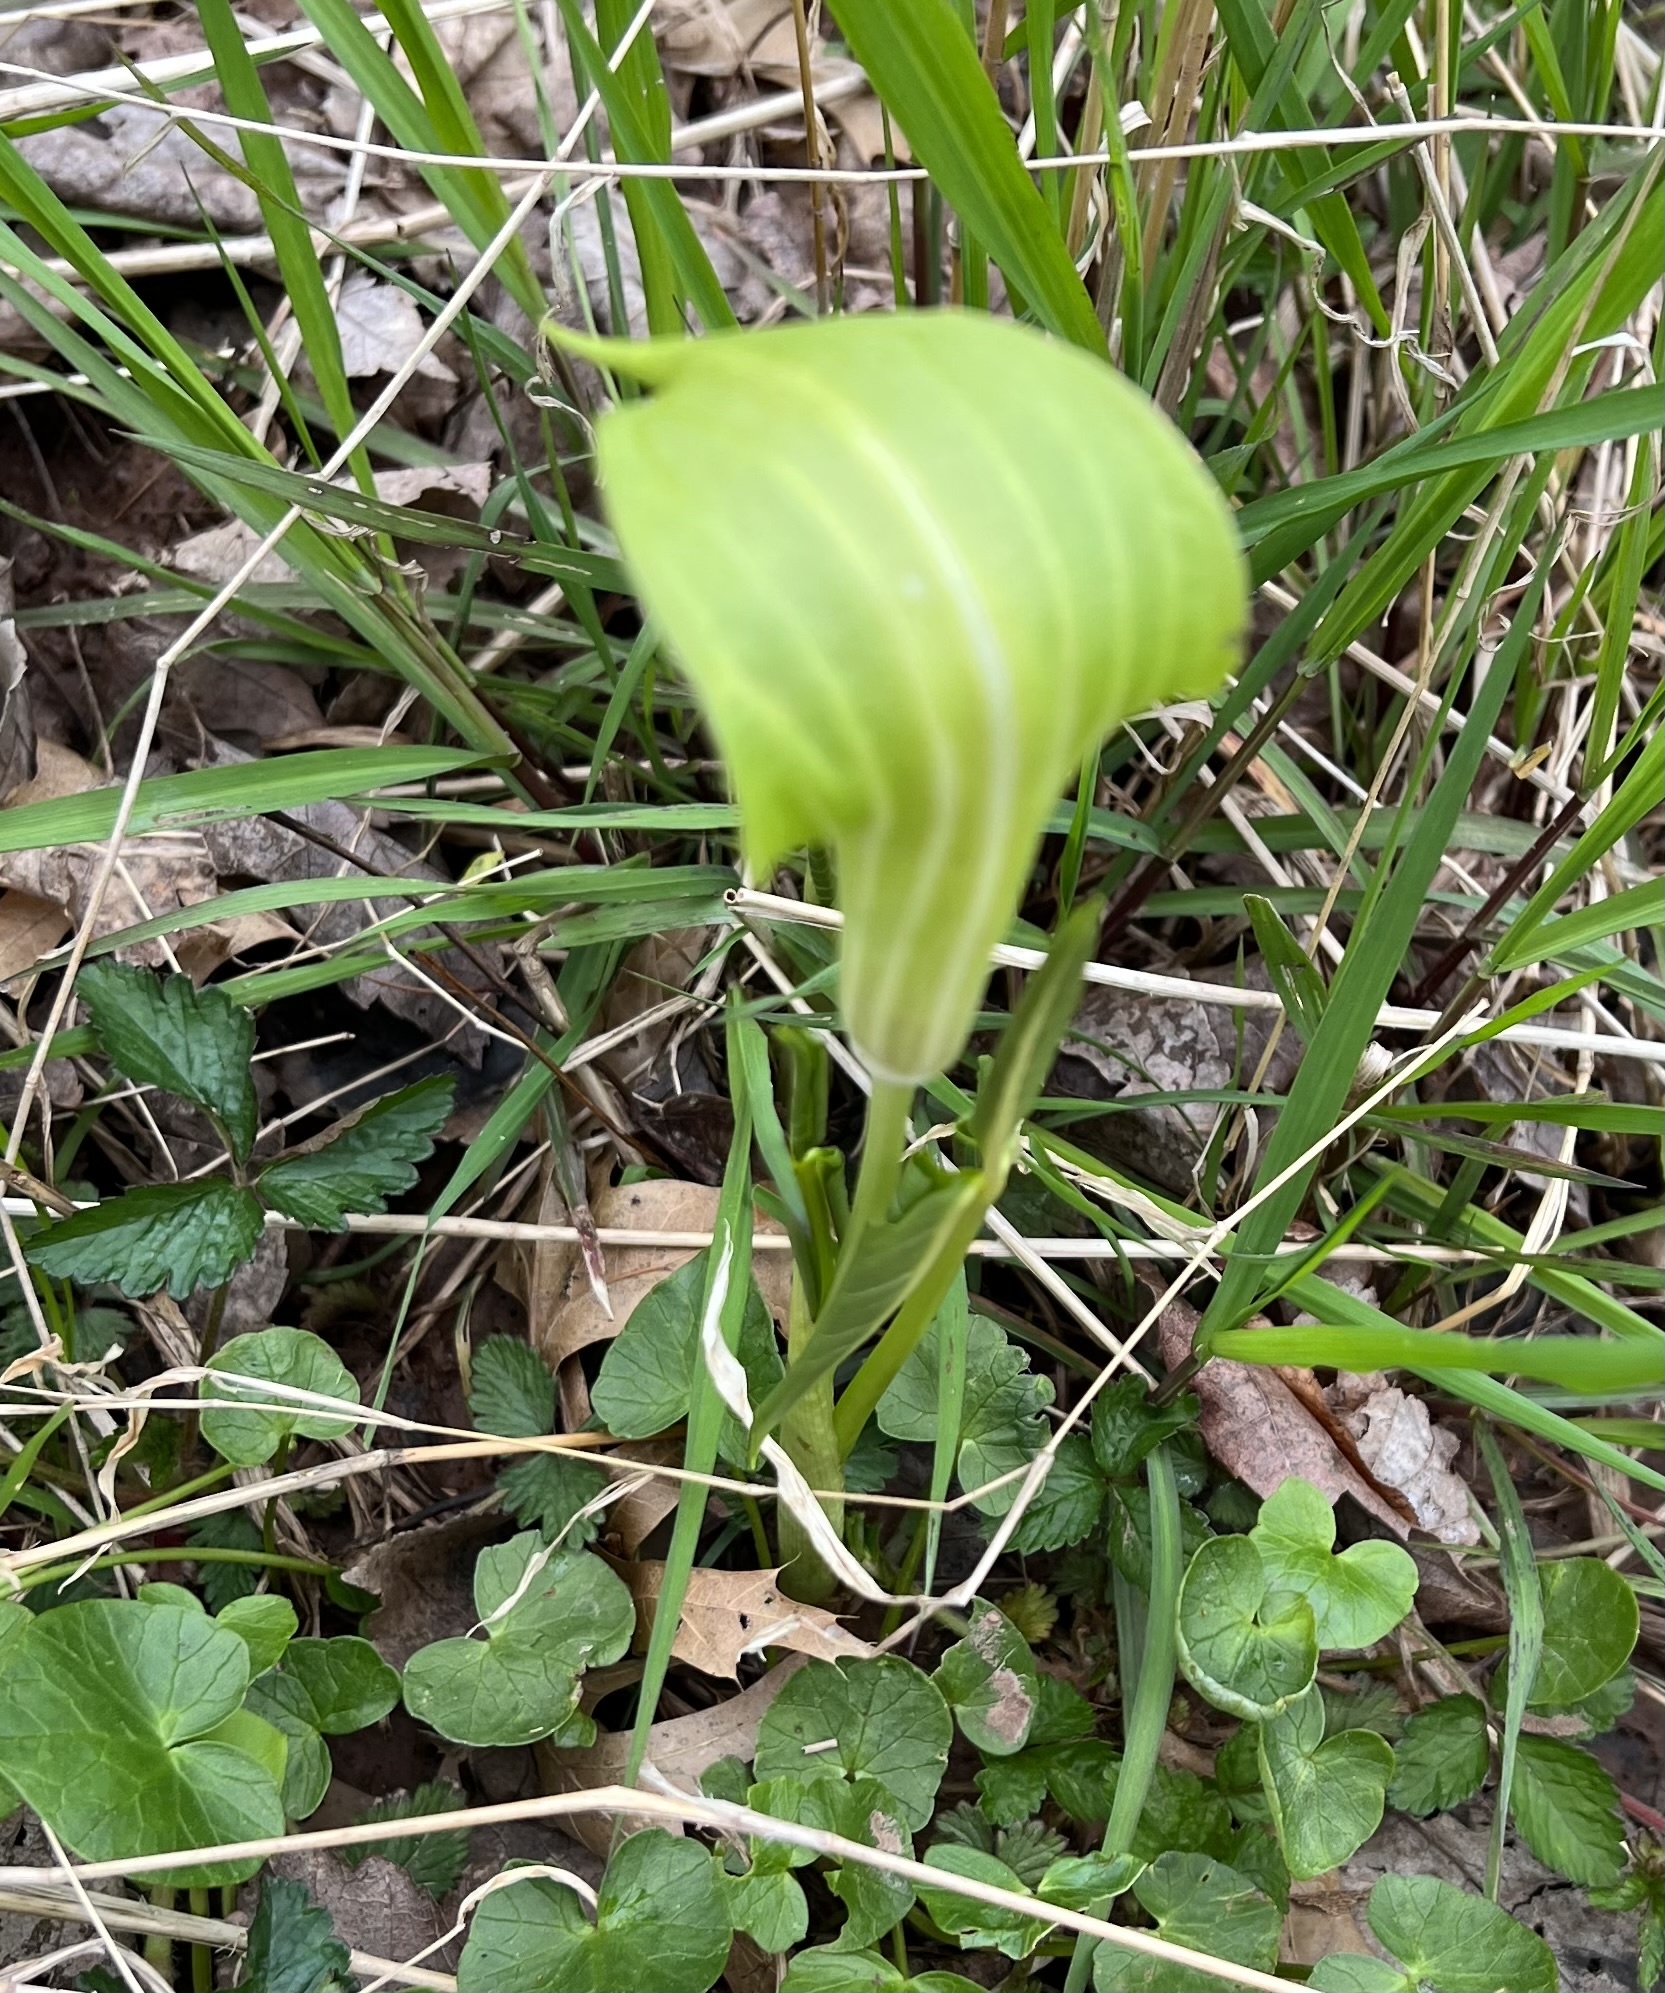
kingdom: Plantae
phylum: Tracheophyta
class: Liliopsida
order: Alismatales
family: Araceae
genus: Arisaema
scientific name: Arisaema triphyllum
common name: Jack-in-the-pulpit
